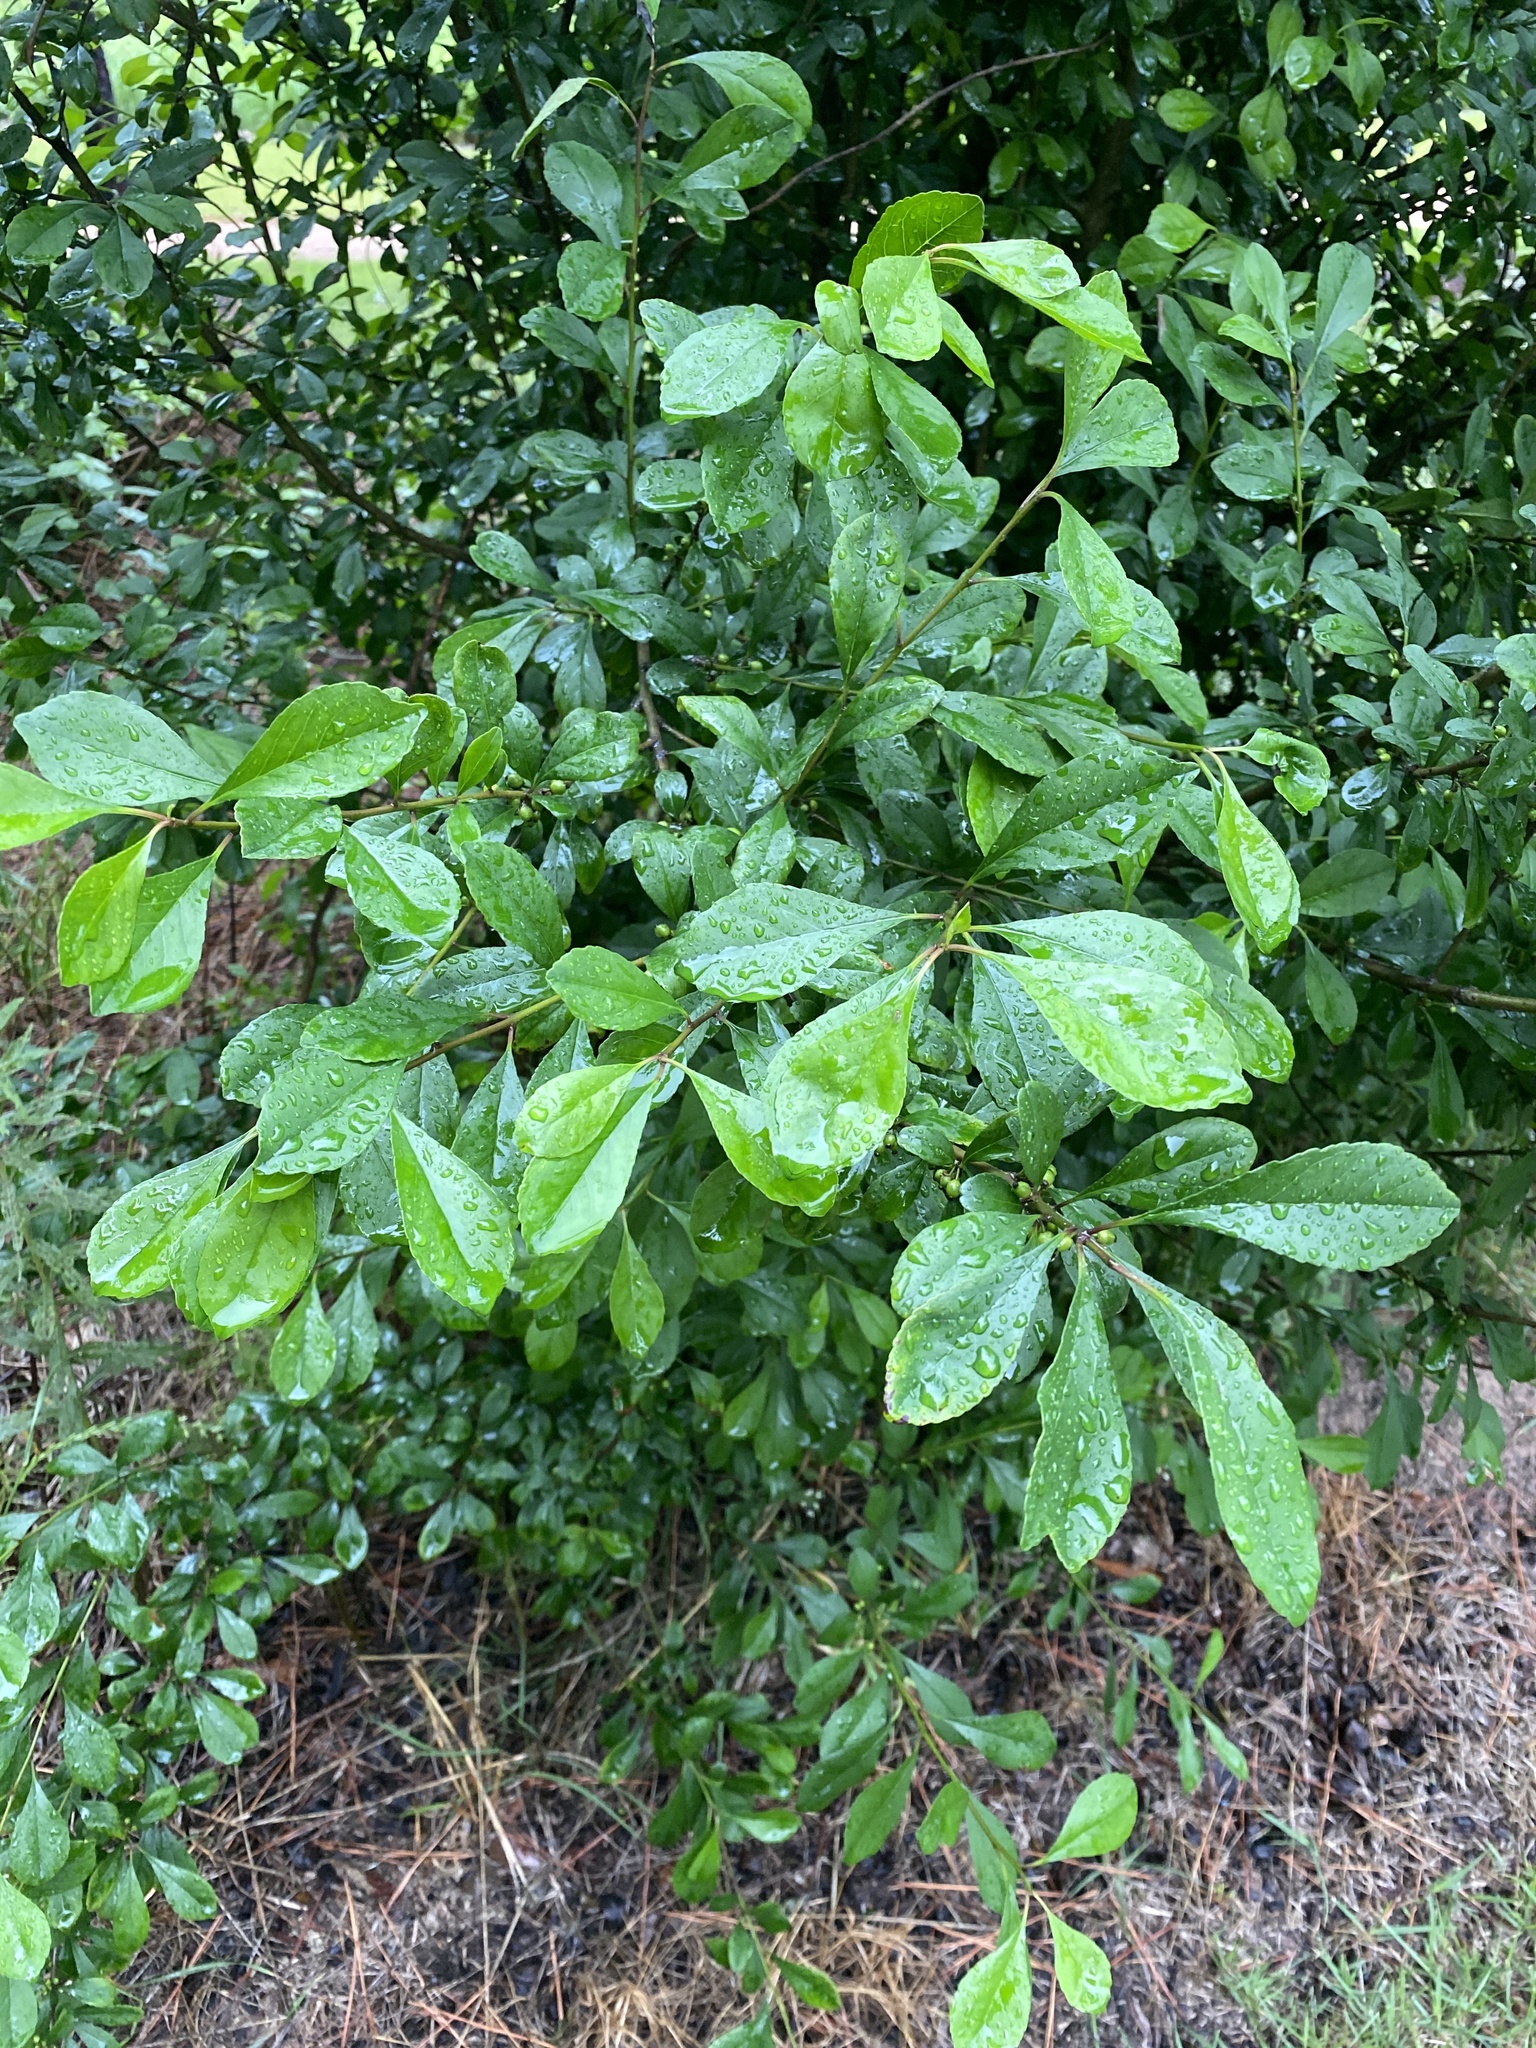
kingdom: Plantae
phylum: Tracheophyta
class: Magnoliopsida
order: Ericales
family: Sapotaceae
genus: Sideroxylon
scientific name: Sideroxylon lanuginosum
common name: Chittamwood
